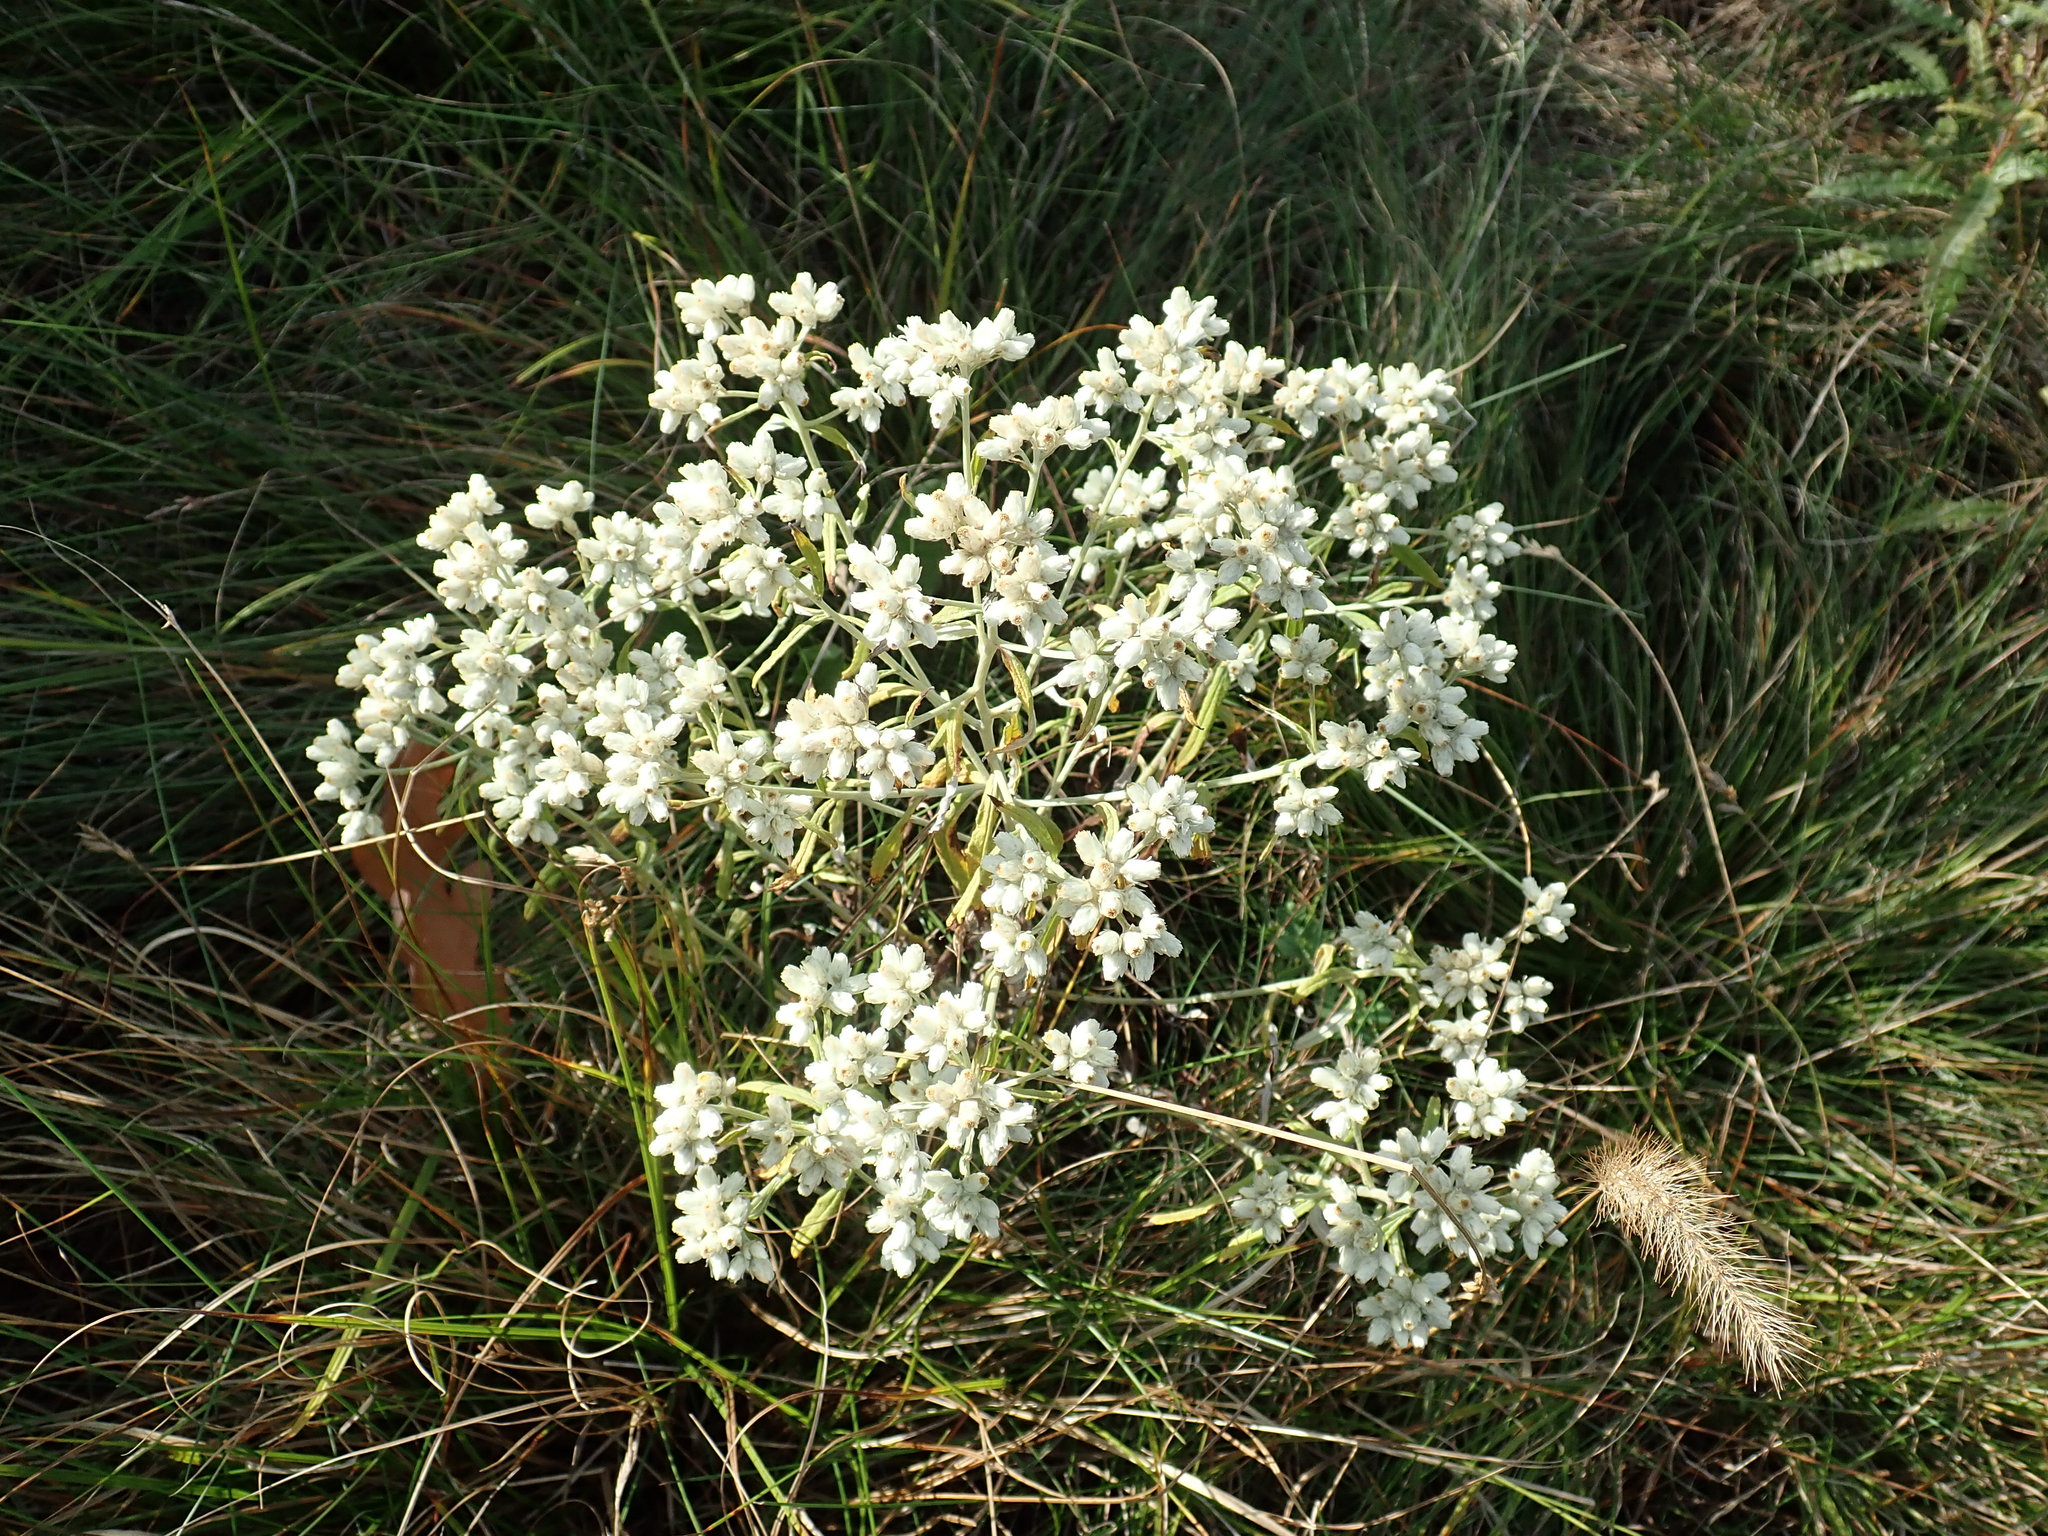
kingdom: Plantae
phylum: Tracheophyta
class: Magnoliopsida
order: Asterales
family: Asteraceae
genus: Pseudognaphalium
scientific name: Pseudognaphalium obtusifolium
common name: Eastern rabbit-tobacco
